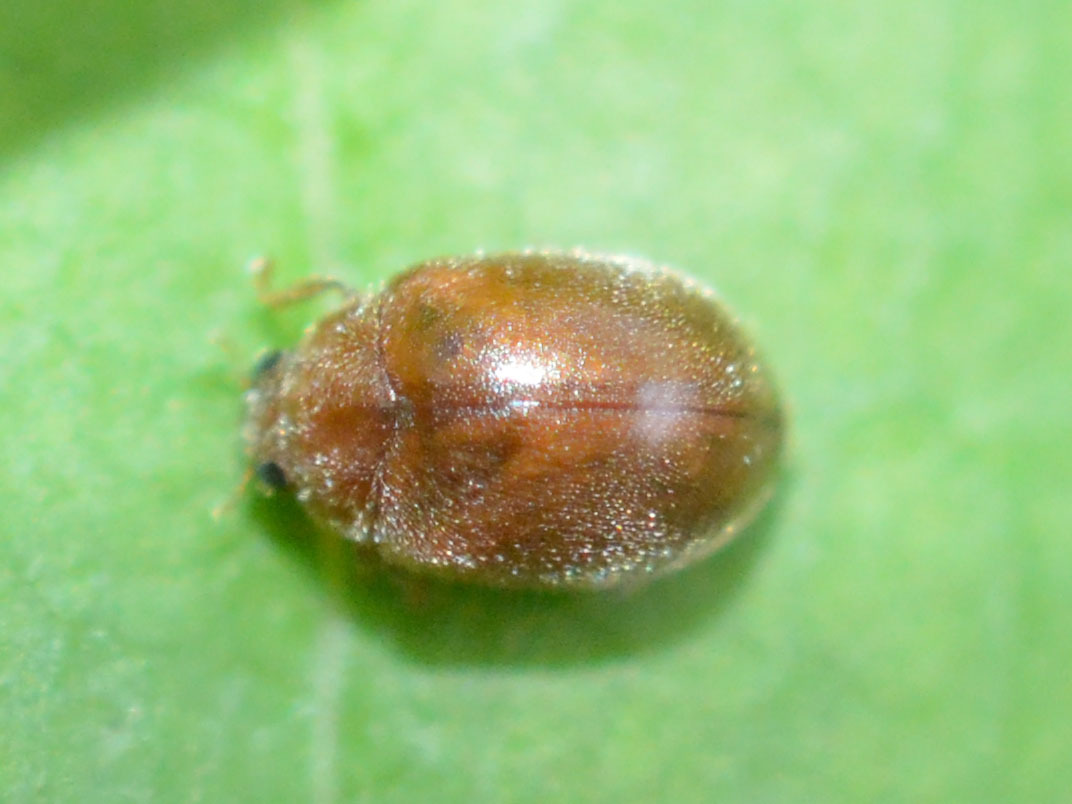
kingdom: Animalia
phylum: Arthropoda
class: Insecta
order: Coleoptera
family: Coccinellidae
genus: Scymnus
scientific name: Scymnus abietis
